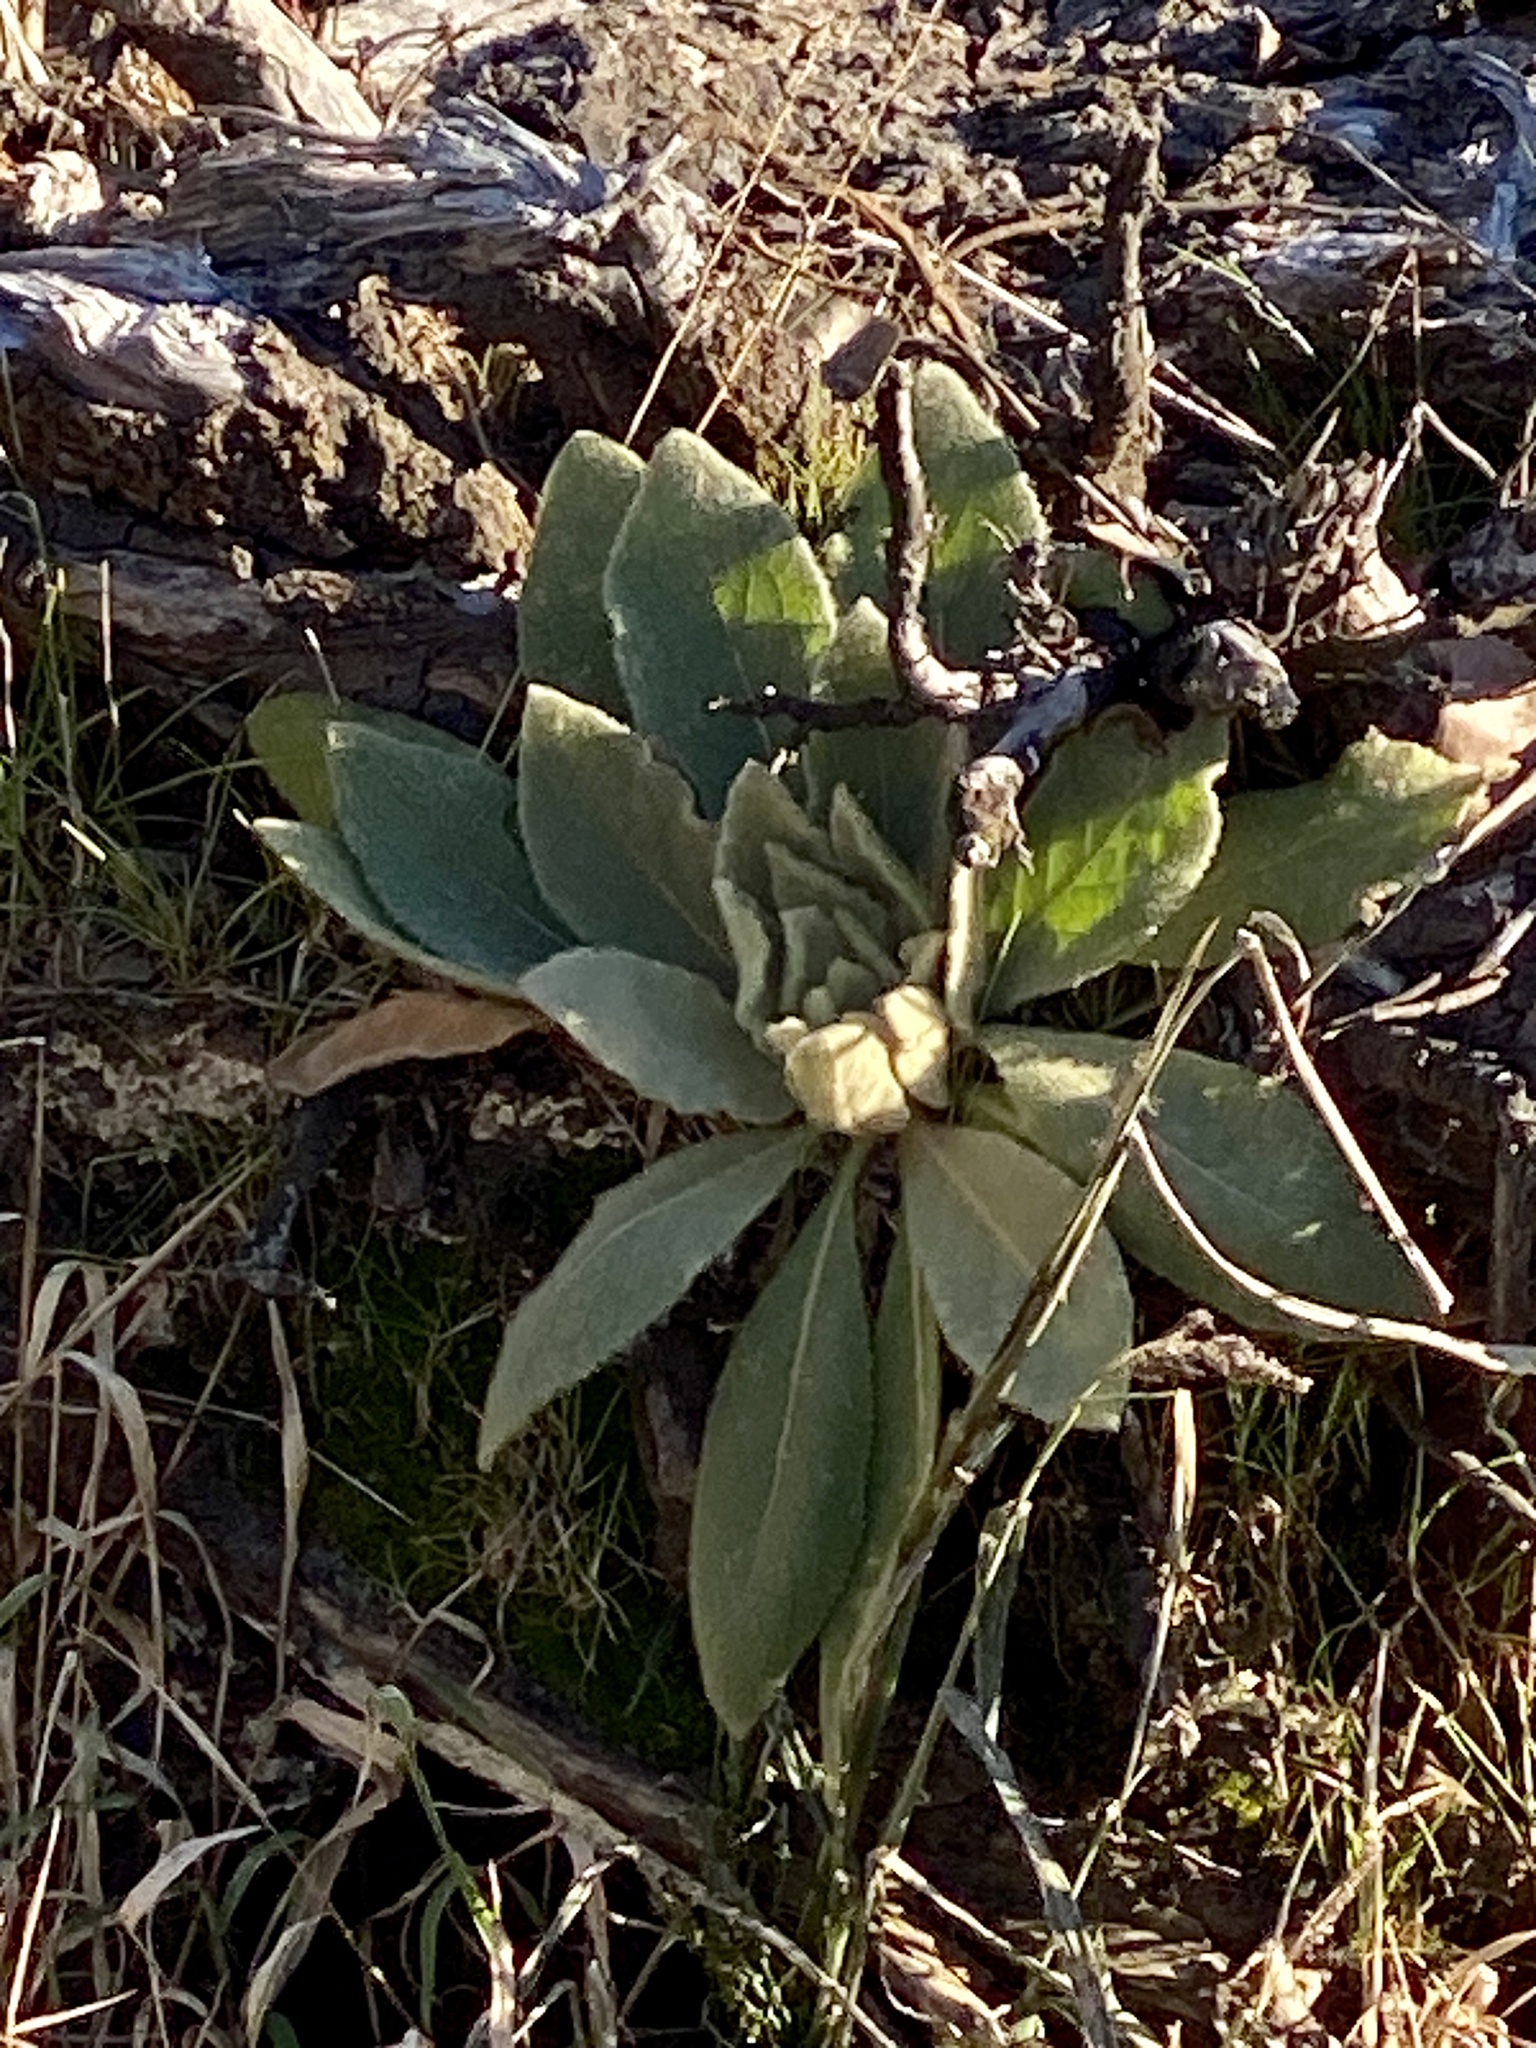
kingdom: Plantae
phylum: Tracheophyta
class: Magnoliopsida
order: Lamiales
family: Scrophulariaceae
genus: Verbascum
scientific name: Verbascum thapsus
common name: Common mullein
